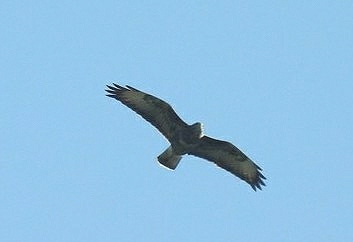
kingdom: Animalia
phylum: Chordata
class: Aves
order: Accipitriformes
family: Accipitridae
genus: Buteo
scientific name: Buteo buteo
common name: Common buzzard
